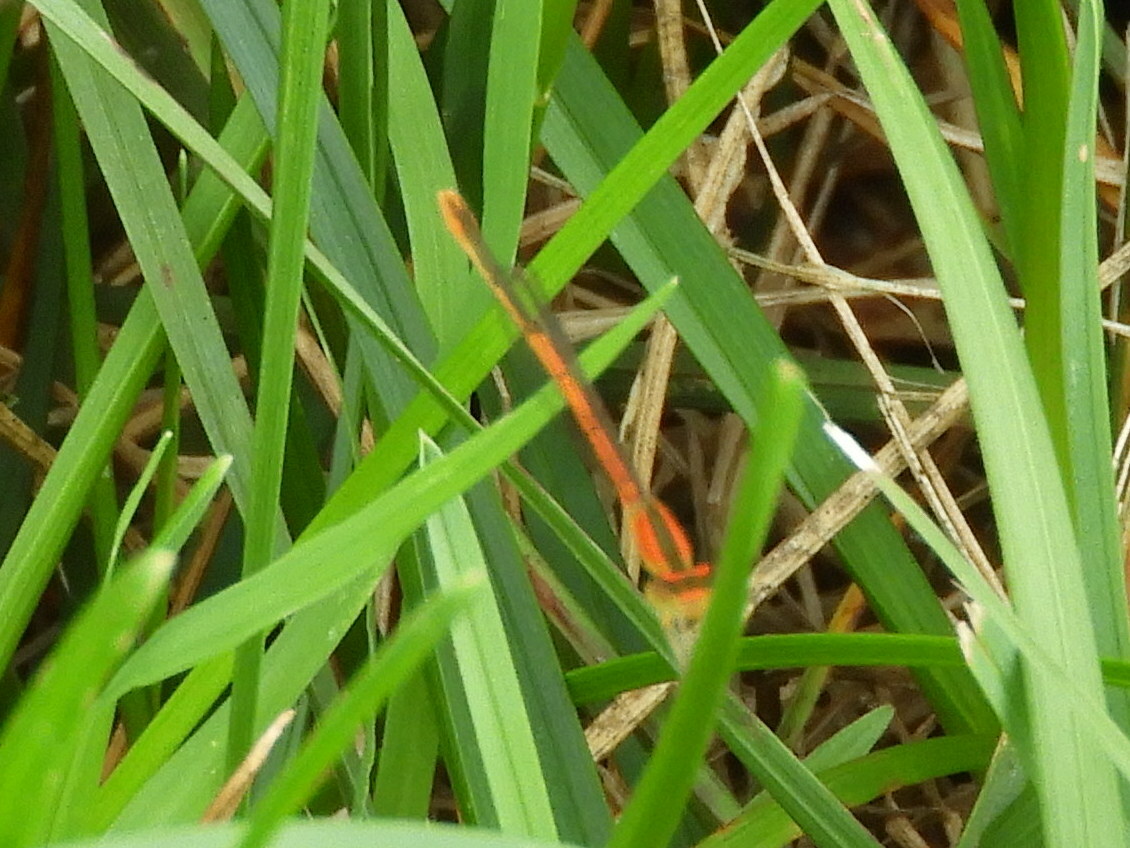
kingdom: Animalia
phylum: Arthropoda
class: Insecta
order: Odonata
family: Coenagrionidae
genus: Ischnura
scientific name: Ischnura hastata
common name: Citrine forktail
